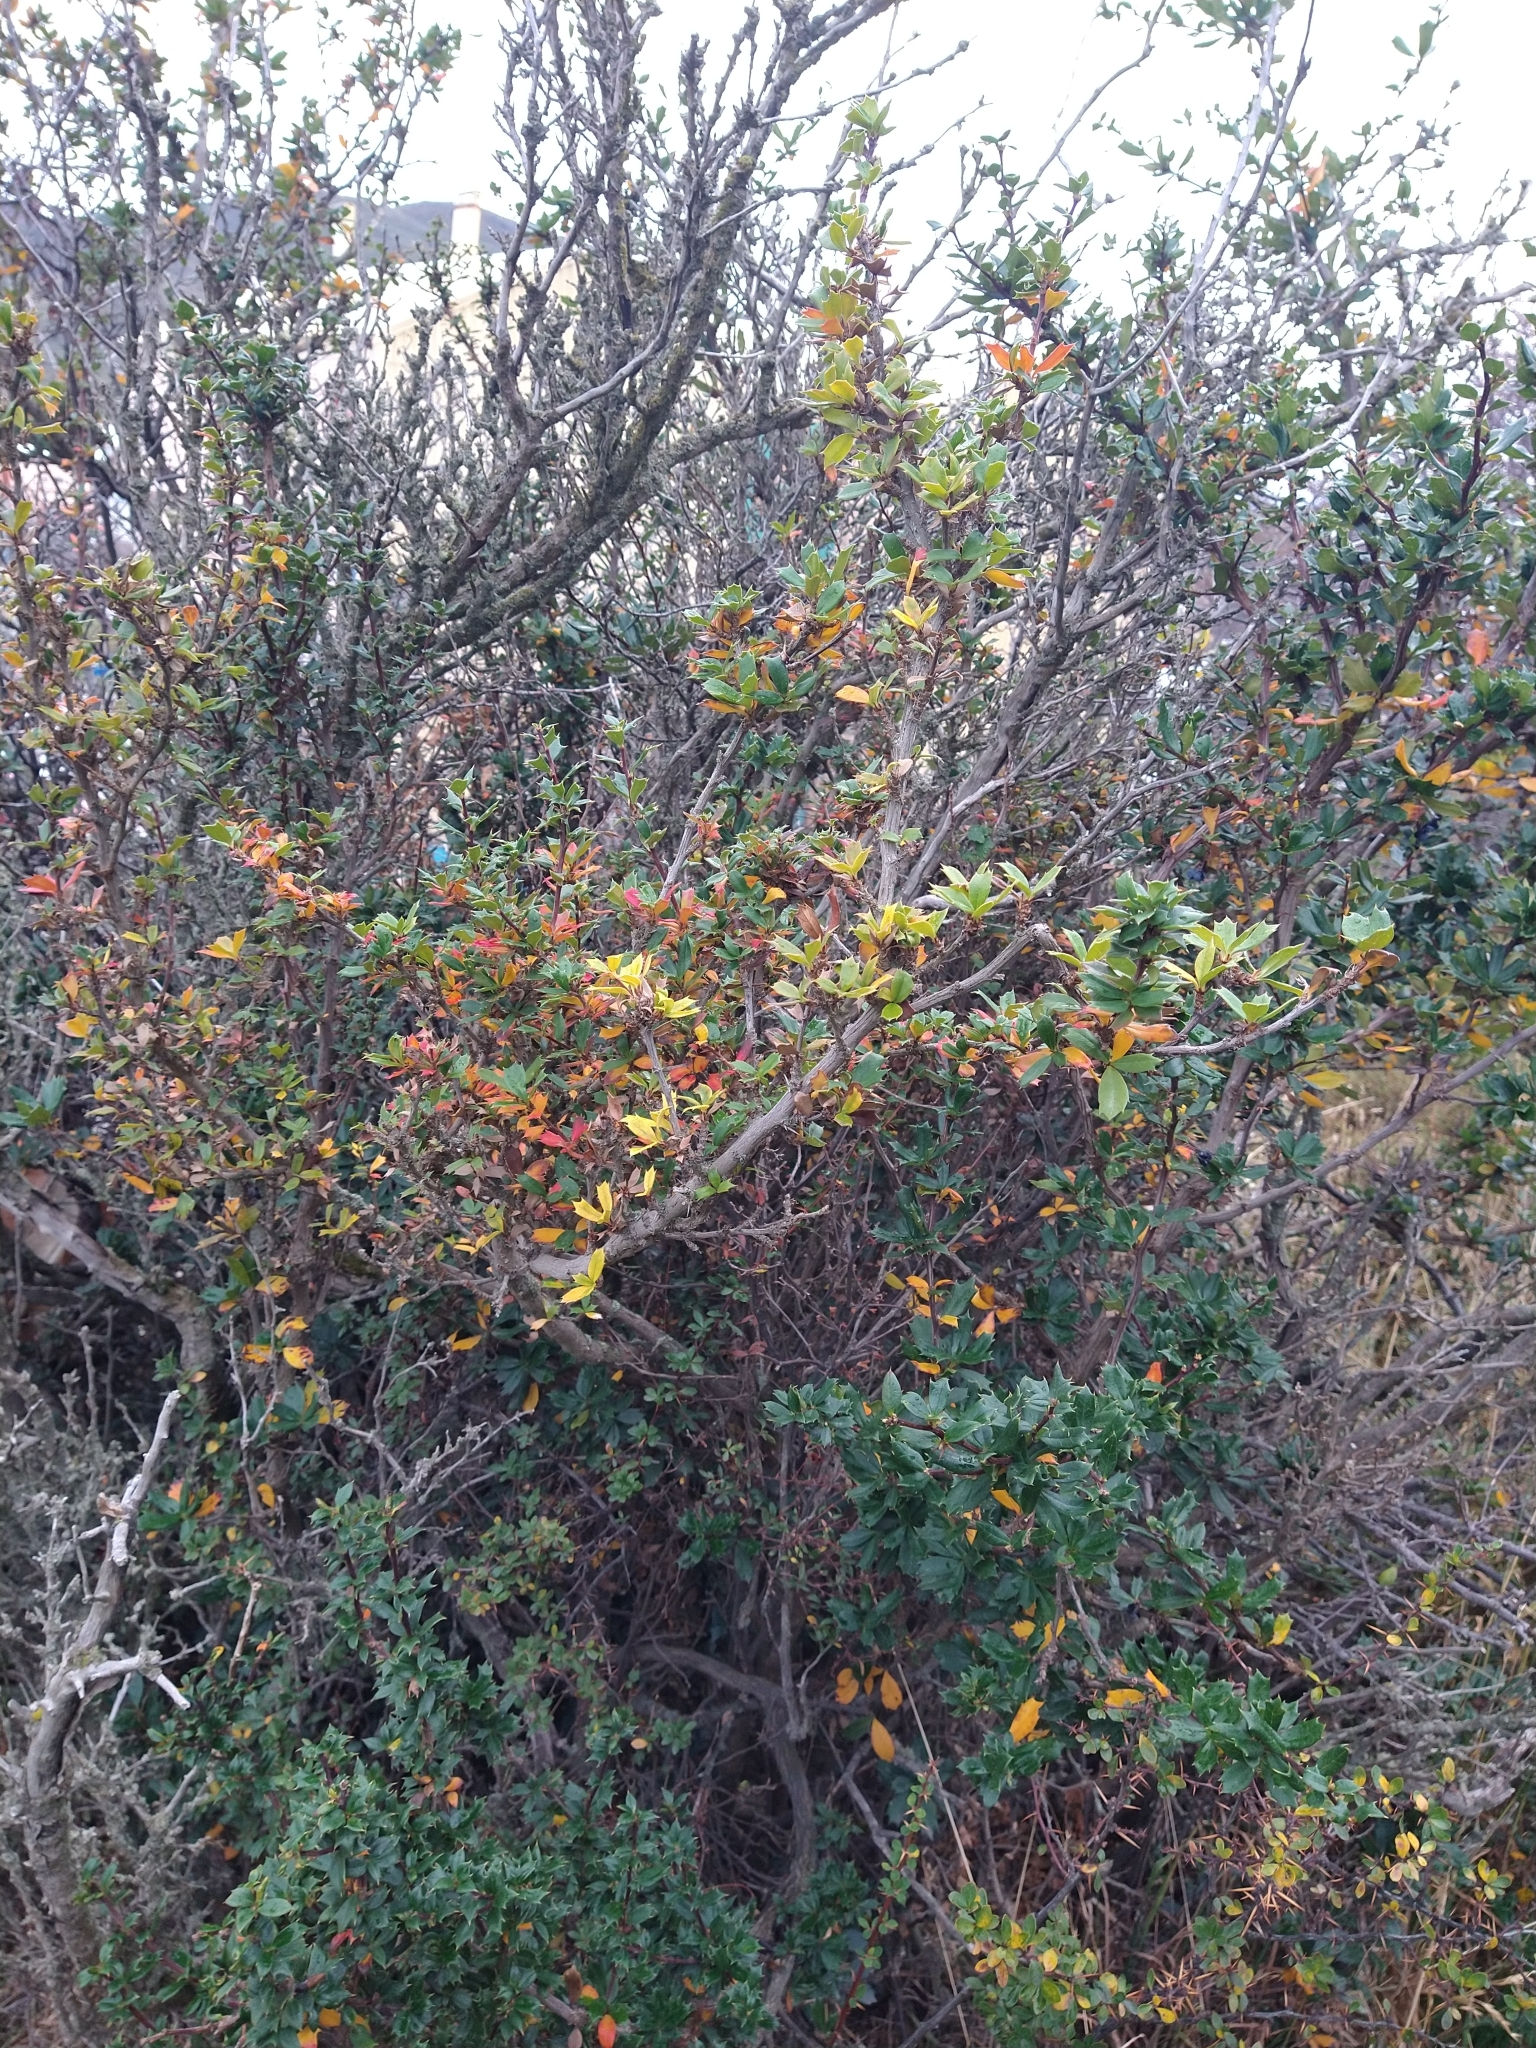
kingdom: Plantae
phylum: Tracheophyta
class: Magnoliopsida
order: Ranunculales
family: Berberidaceae
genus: Berberis
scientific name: Berberis ilicifolia
